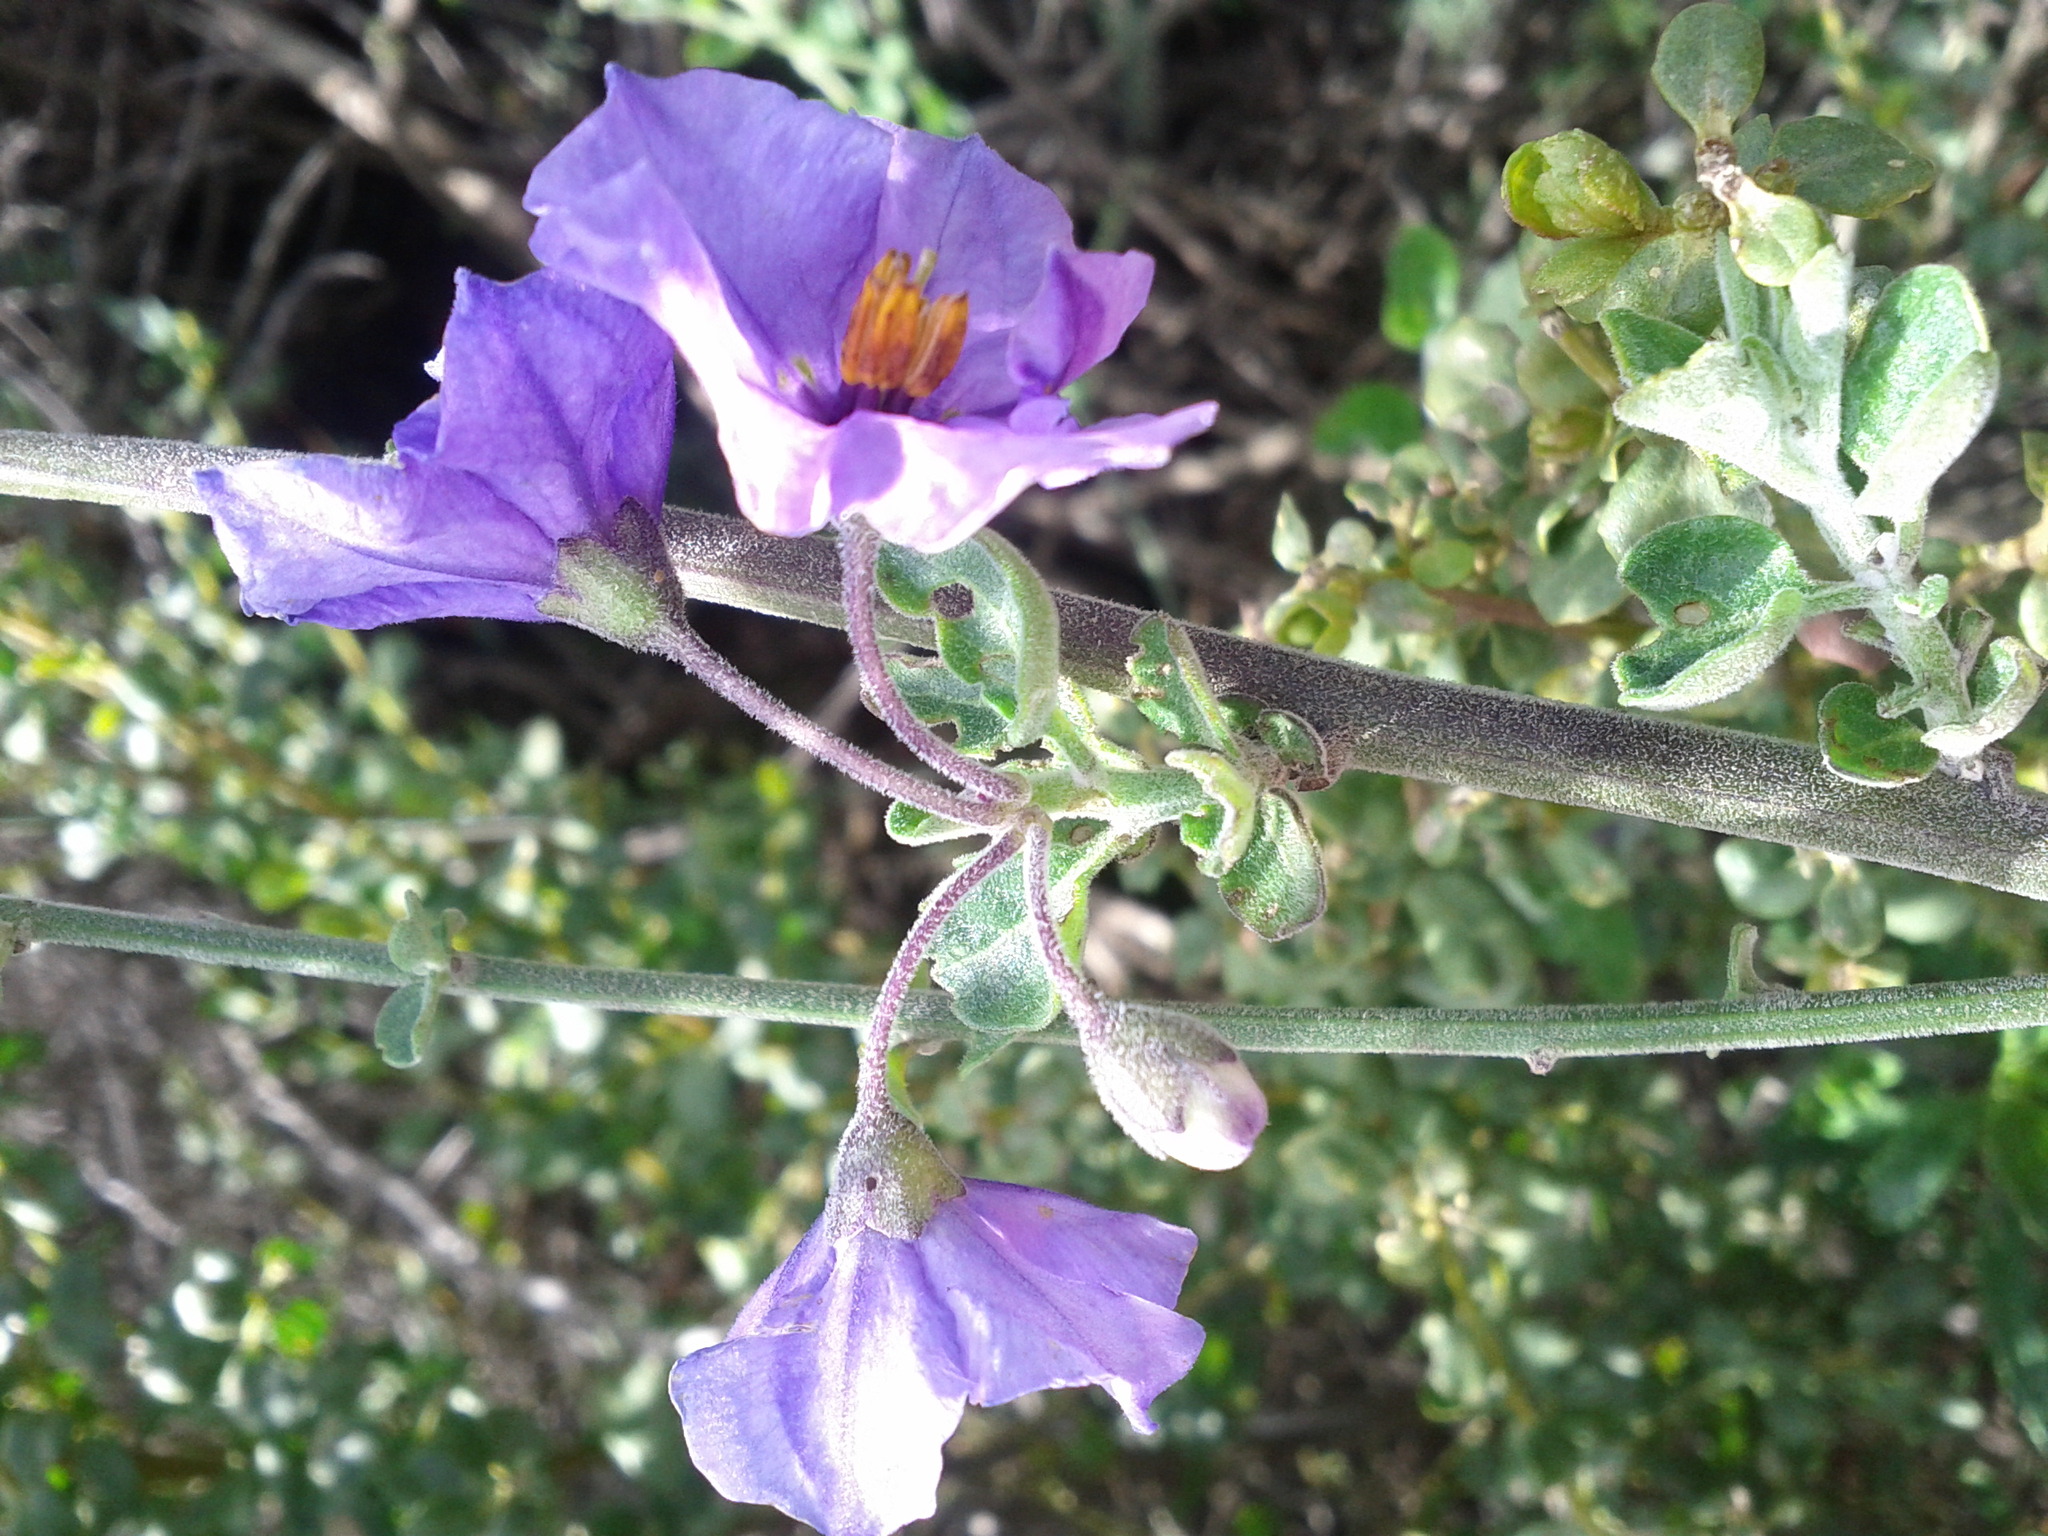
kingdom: Plantae
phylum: Tracheophyta
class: Magnoliopsida
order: Solanales
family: Solanaceae
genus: Solanum
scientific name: Solanum umbelliferum
